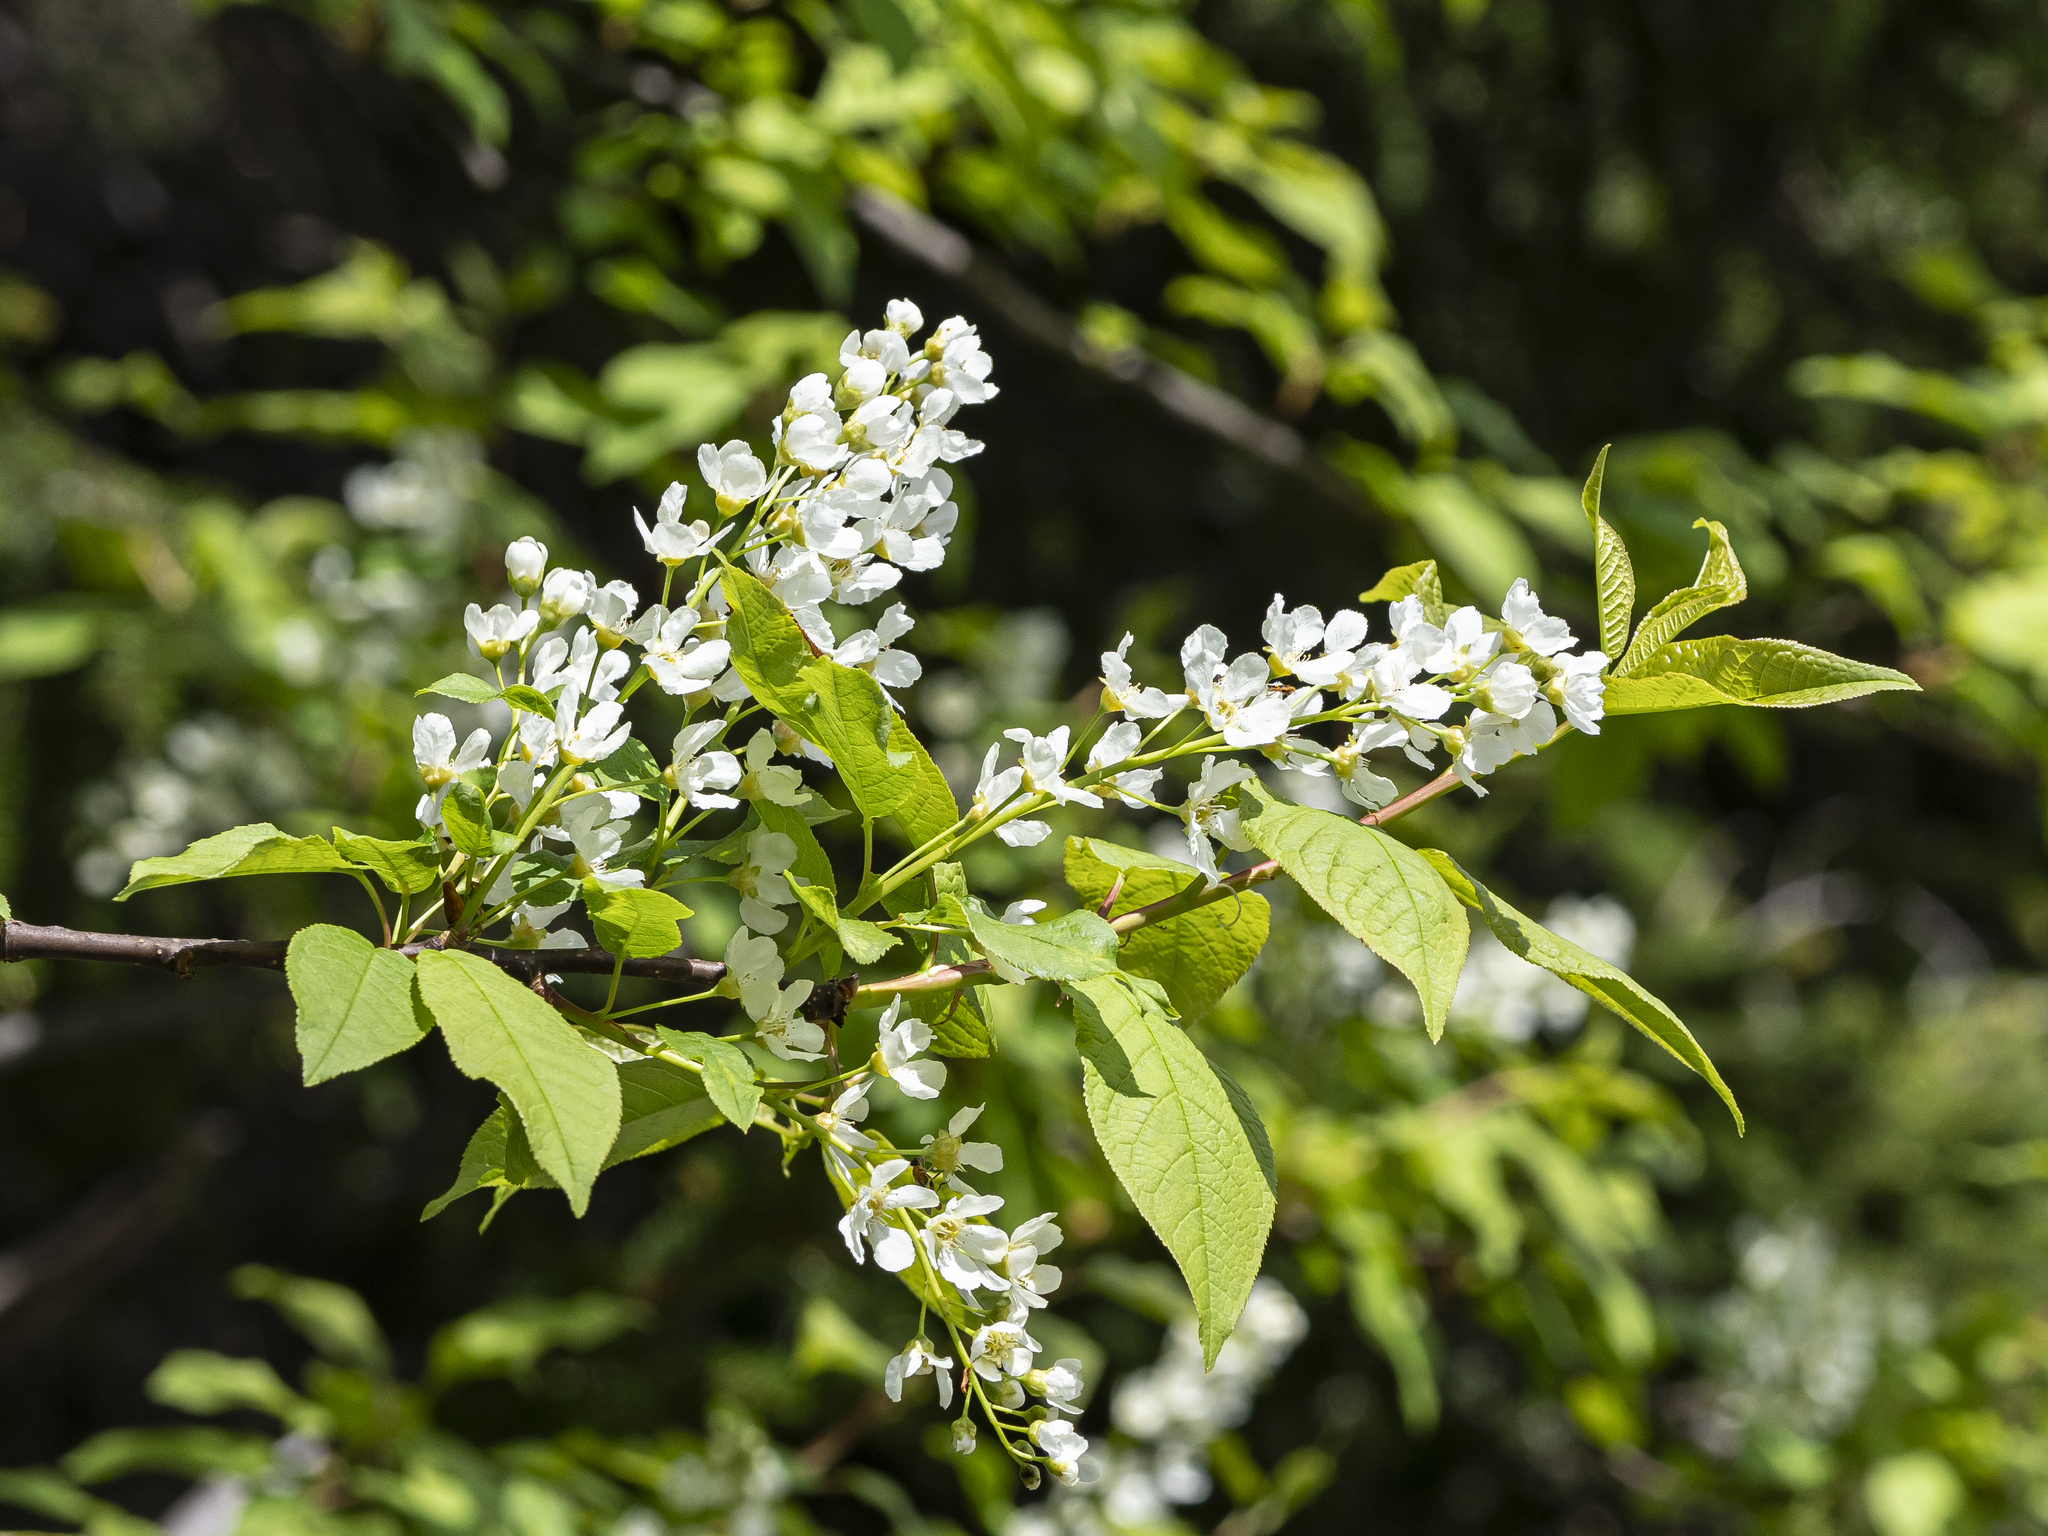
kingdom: Plantae
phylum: Tracheophyta
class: Magnoliopsida
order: Rosales
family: Rosaceae
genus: Prunus
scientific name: Prunus padus
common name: Bird cherry
